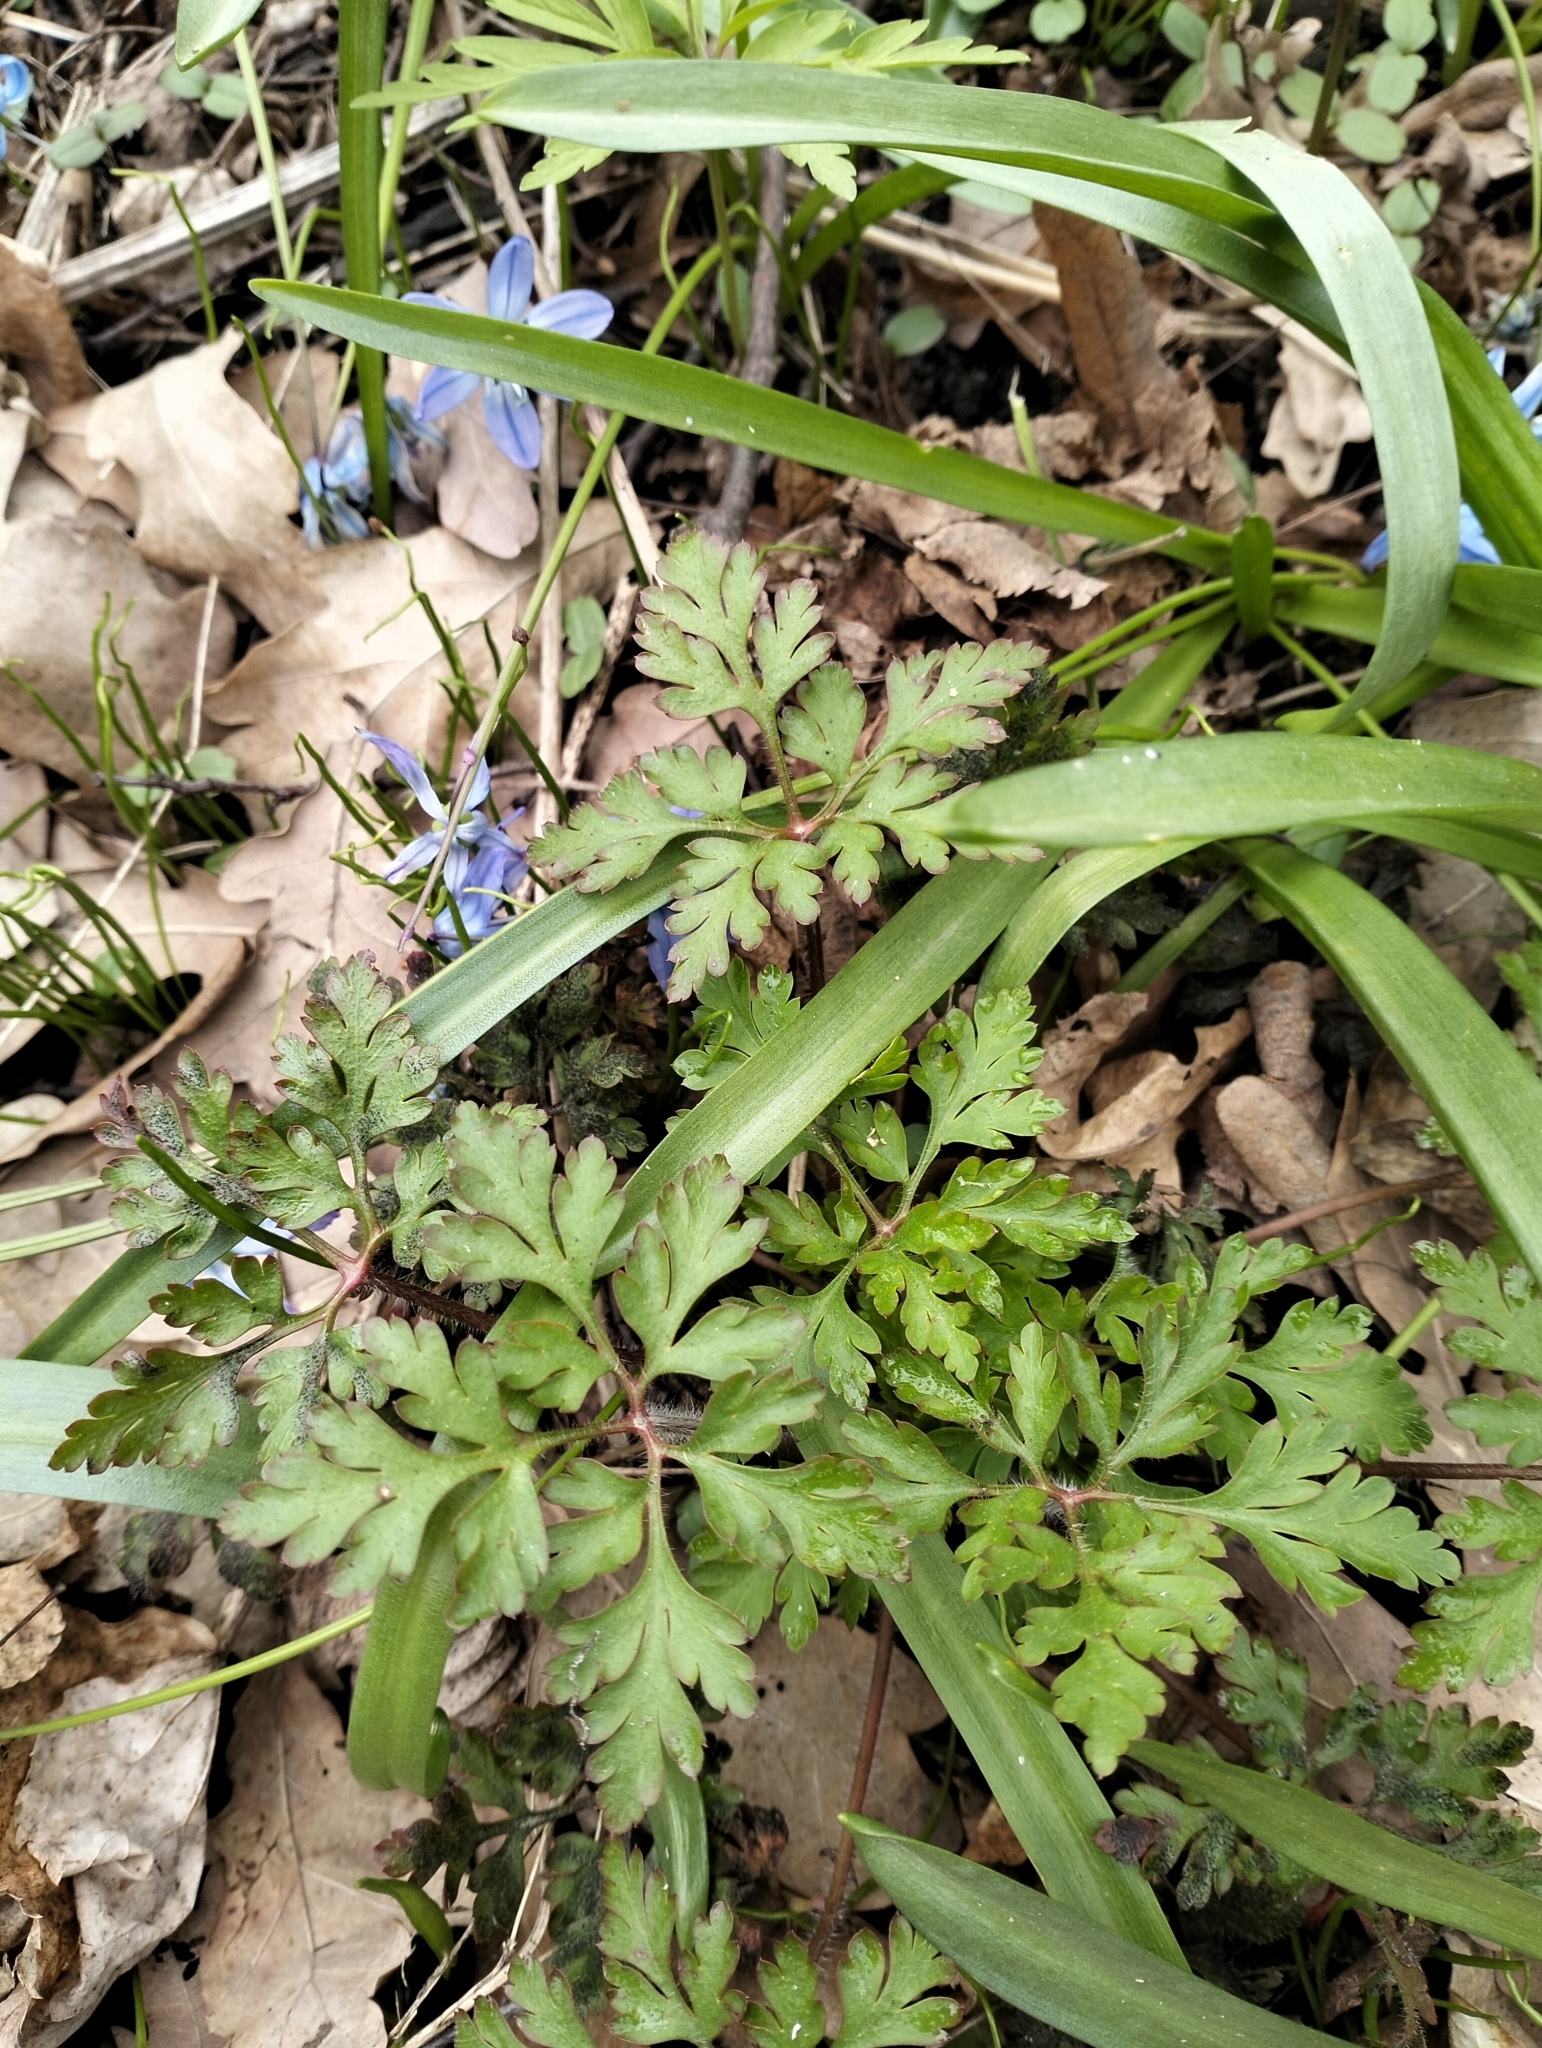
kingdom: Plantae
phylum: Tracheophyta
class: Magnoliopsida
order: Geraniales
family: Geraniaceae
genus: Geranium
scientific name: Geranium robertianum
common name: Herb-robert
